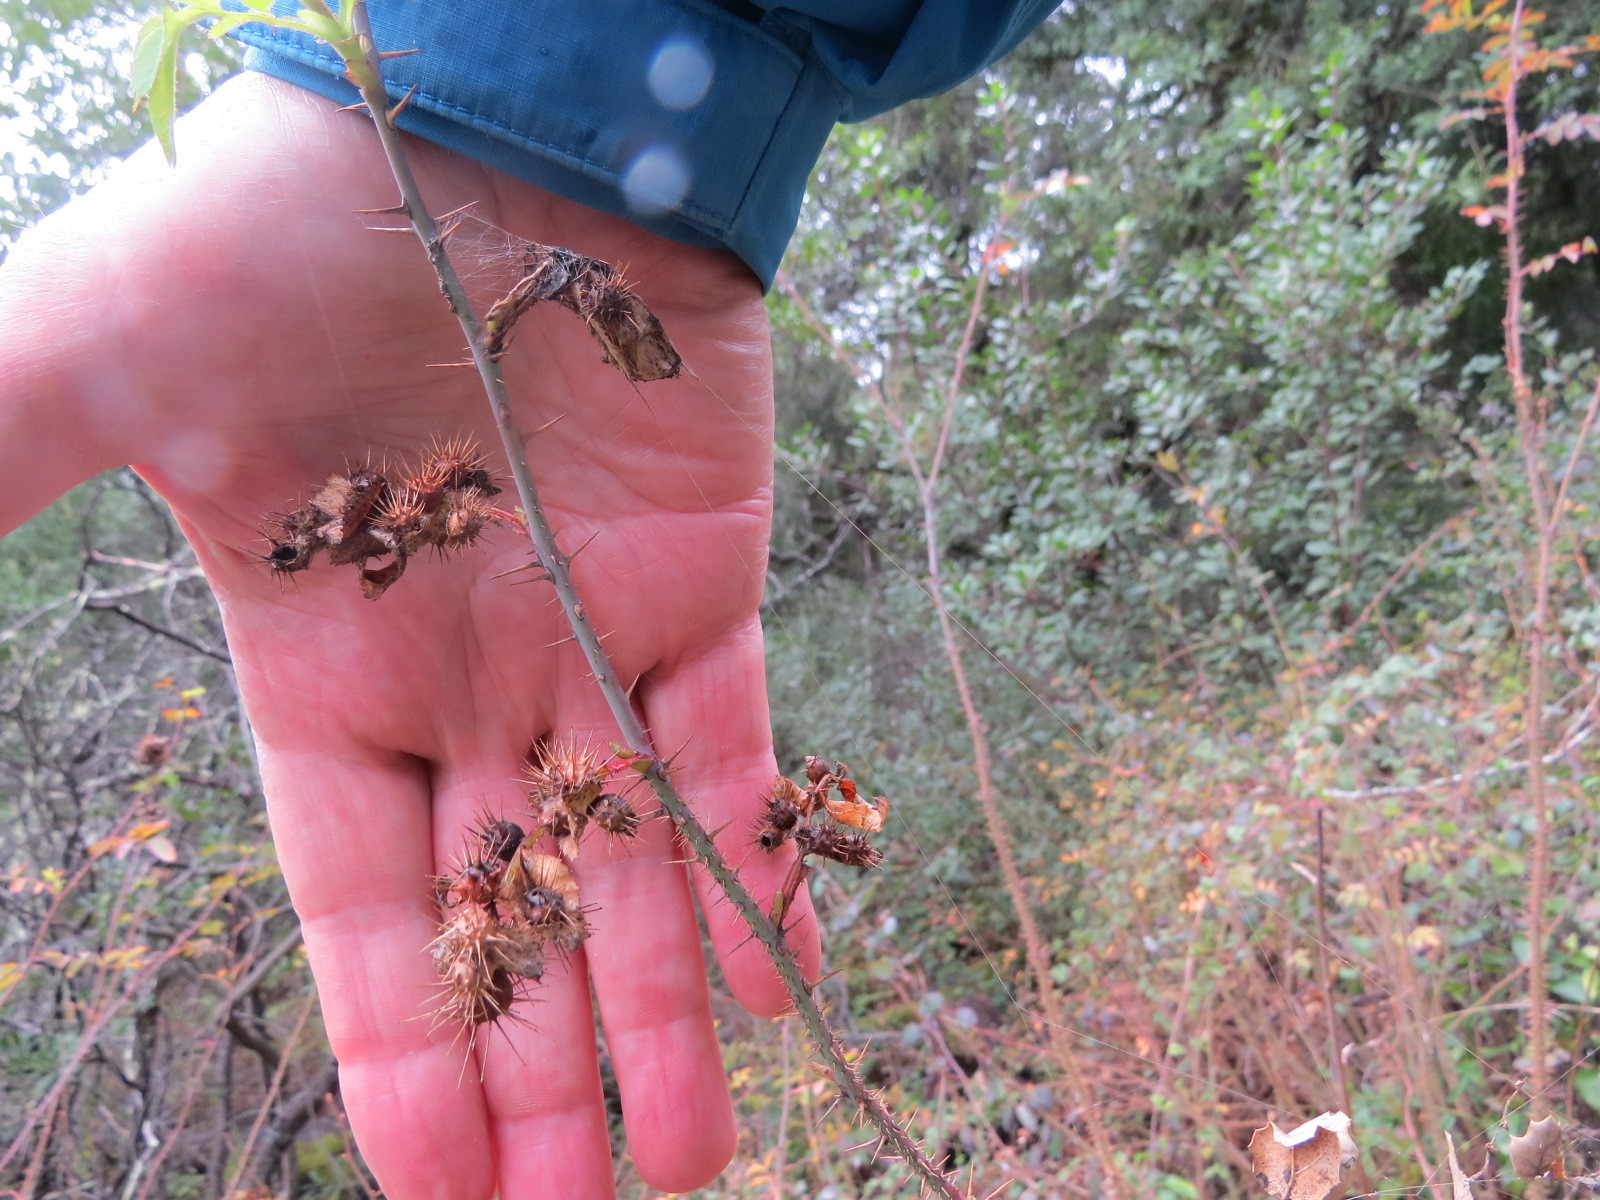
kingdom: Animalia
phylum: Arthropoda
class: Insecta
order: Hymenoptera
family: Cynipidae
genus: Diplolepis
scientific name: Diplolepis polita
